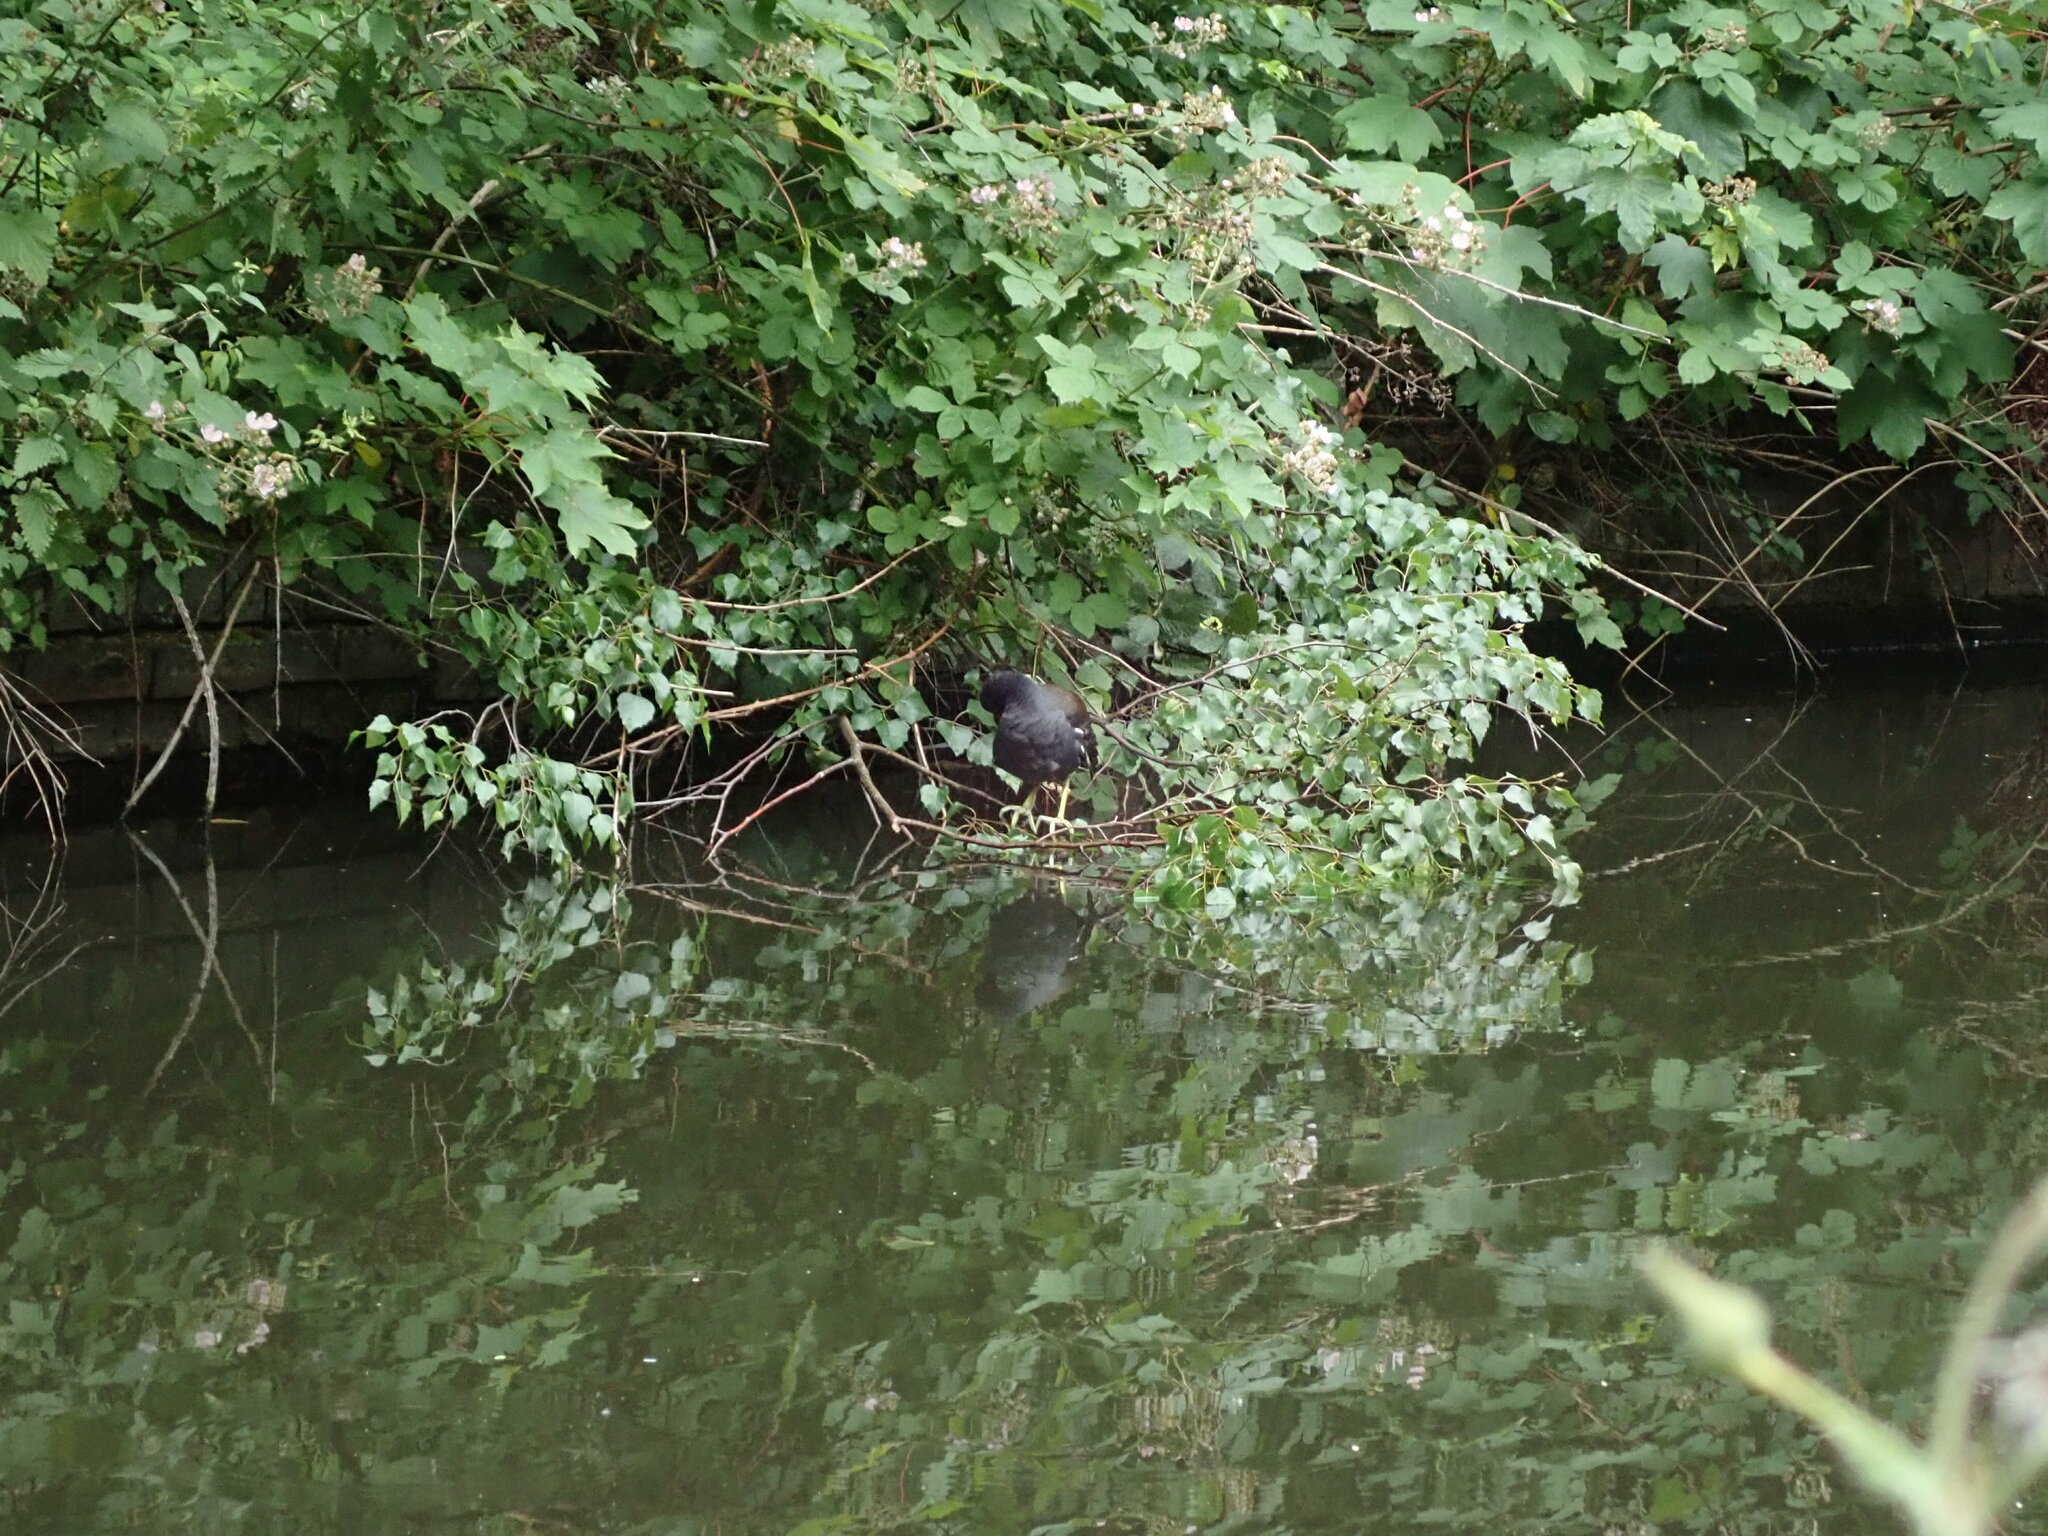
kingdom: Animalia
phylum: Chordata
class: Aves
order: Gruiformes
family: Rallidae
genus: Gallinula
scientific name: Gallinula chloropus
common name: Common moorhen
